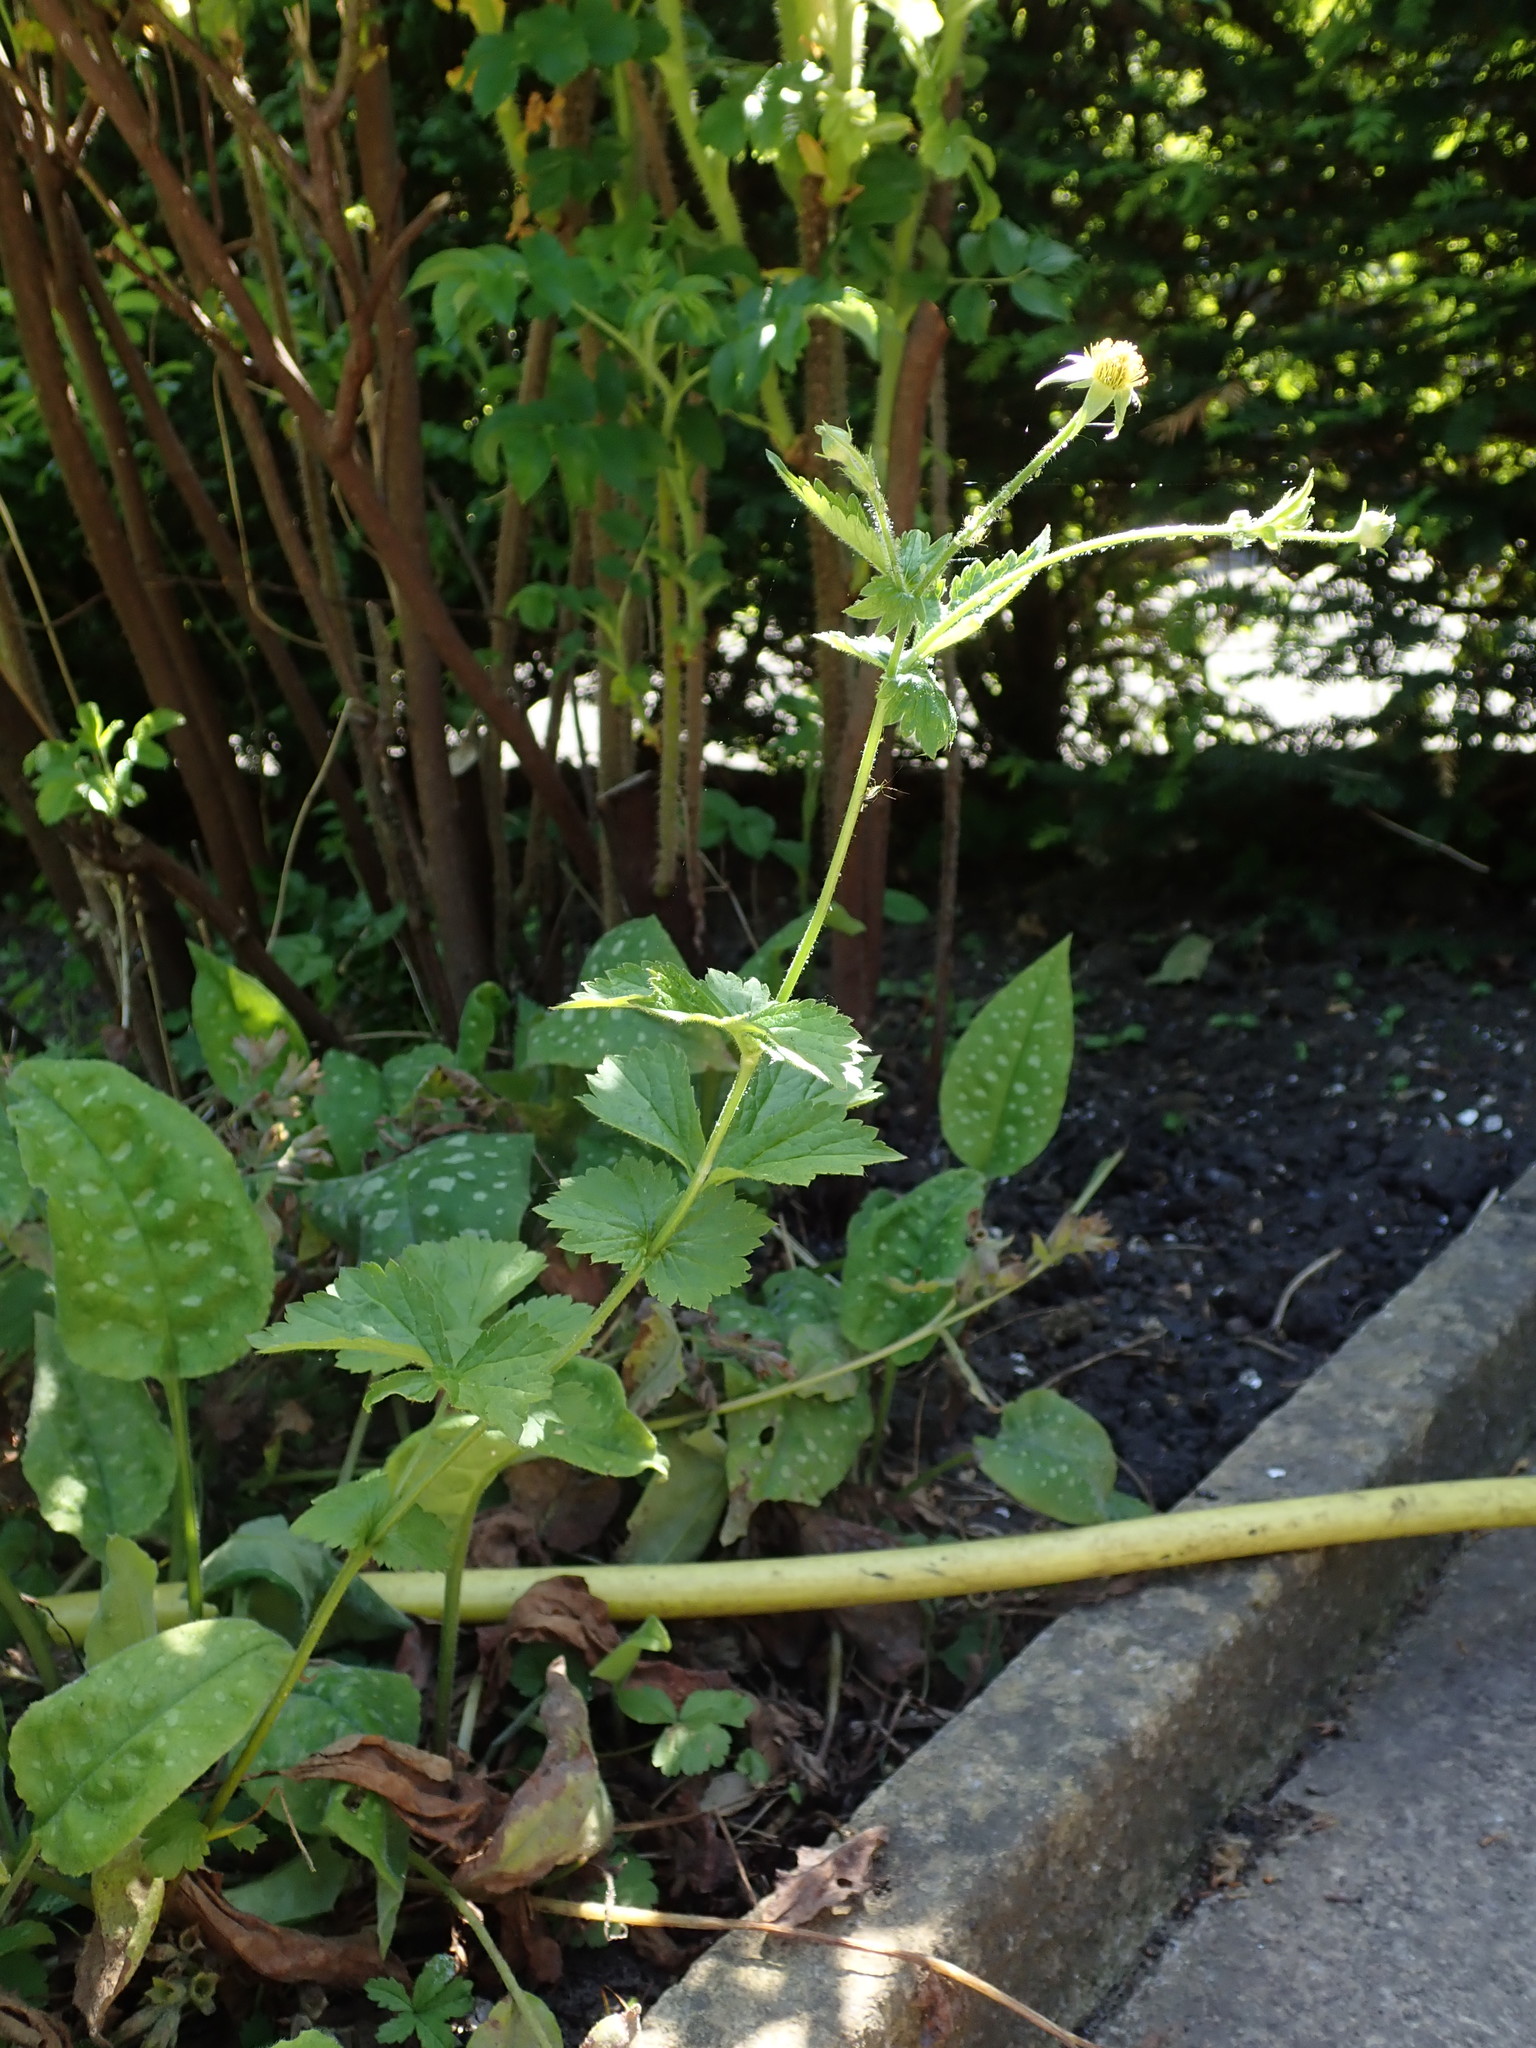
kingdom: Plantae
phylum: Tracheophyta
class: Magnoliopsida
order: Rosales
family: Rosaceae
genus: Geum
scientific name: Geum urbanum
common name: Wood avens
